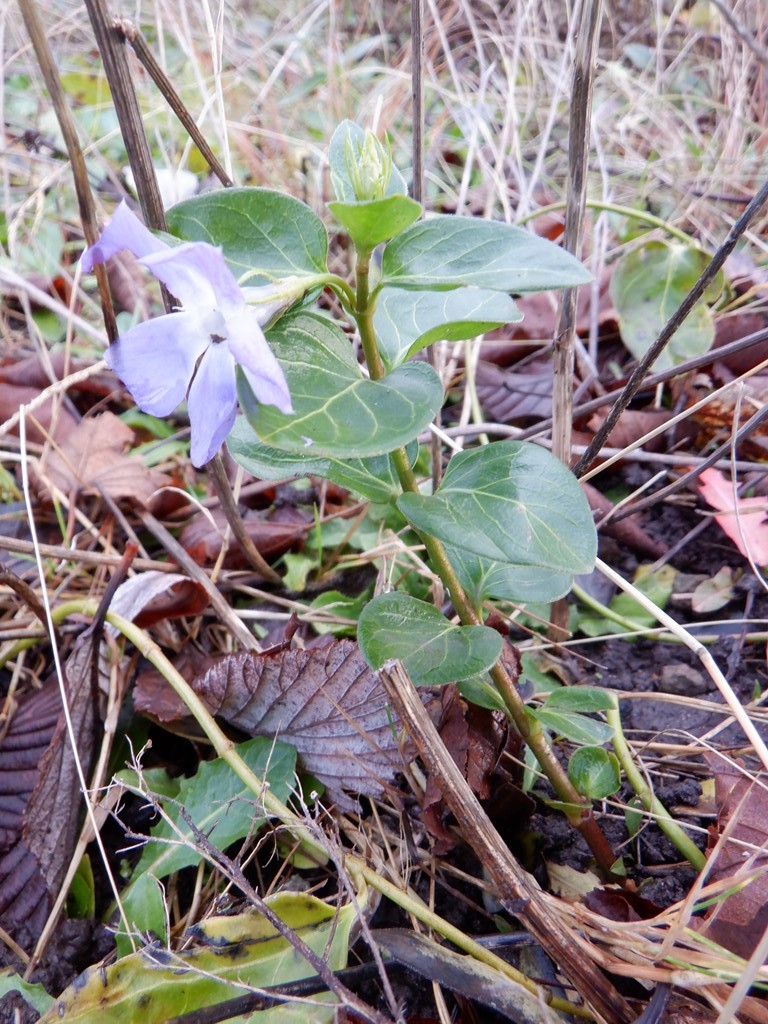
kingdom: Plantae
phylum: Tracheophyta
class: Magnoliopsida
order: Gentianales
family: Apocynaceae
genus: Vinca
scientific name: Vinca major
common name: Greater periwinkle
